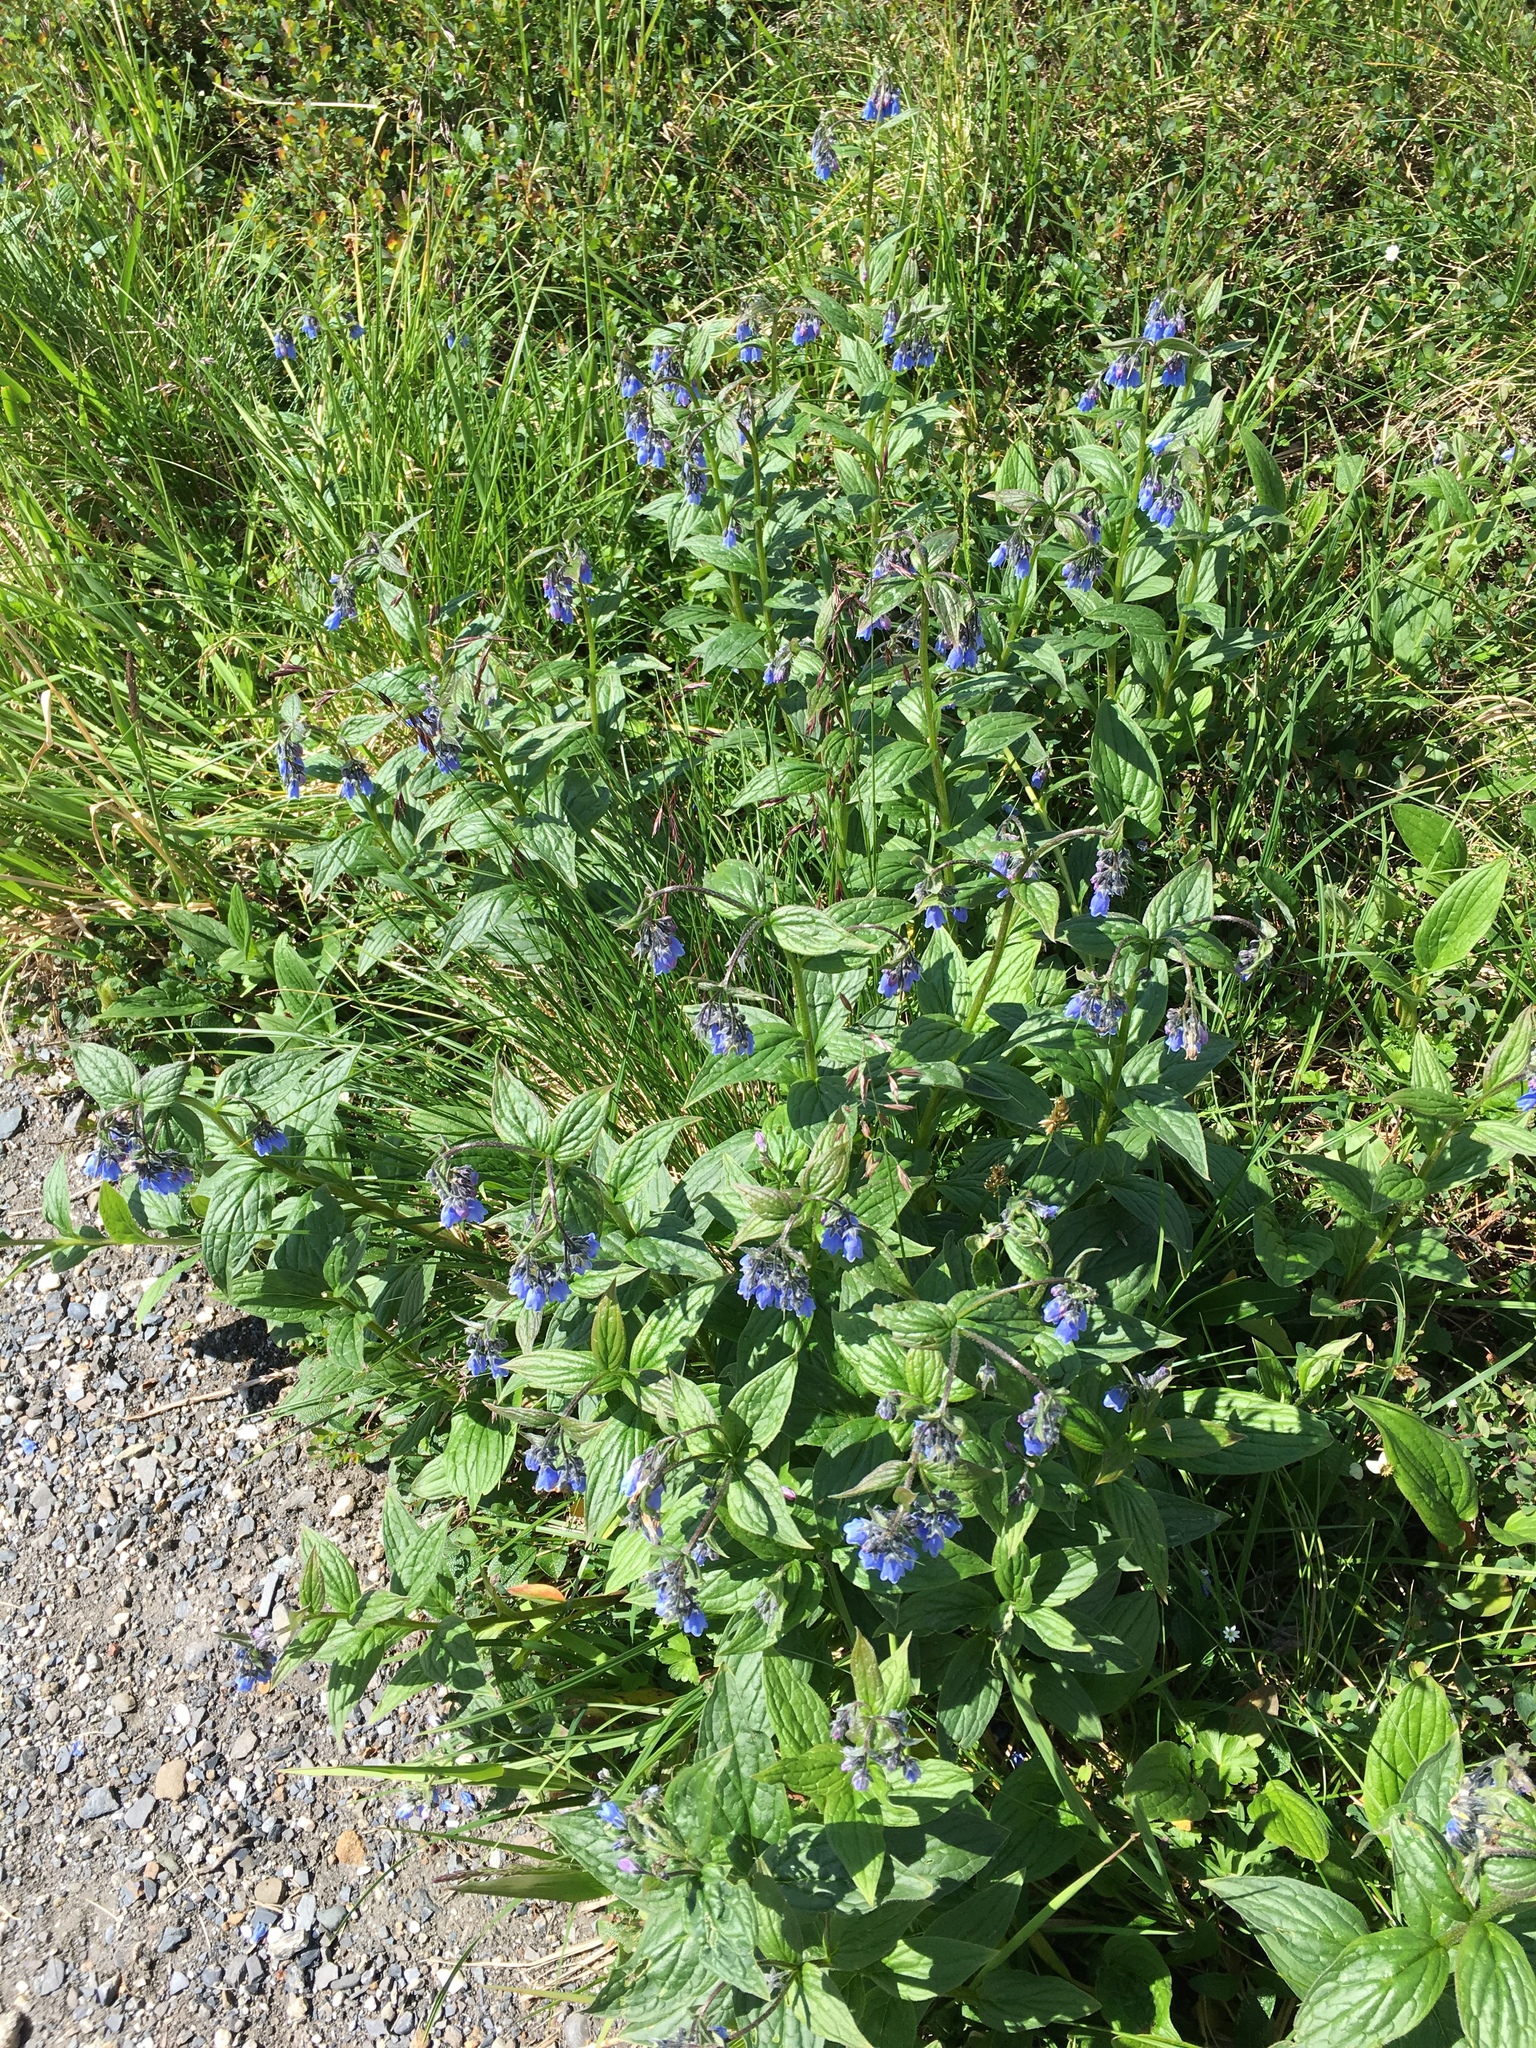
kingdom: Plantae
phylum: Tracheophyta
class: Magnoliopsida
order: Boraginales
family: Boraginaceae
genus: Mertensia
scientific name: Mertensia paniculata
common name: Panicled bluebells
